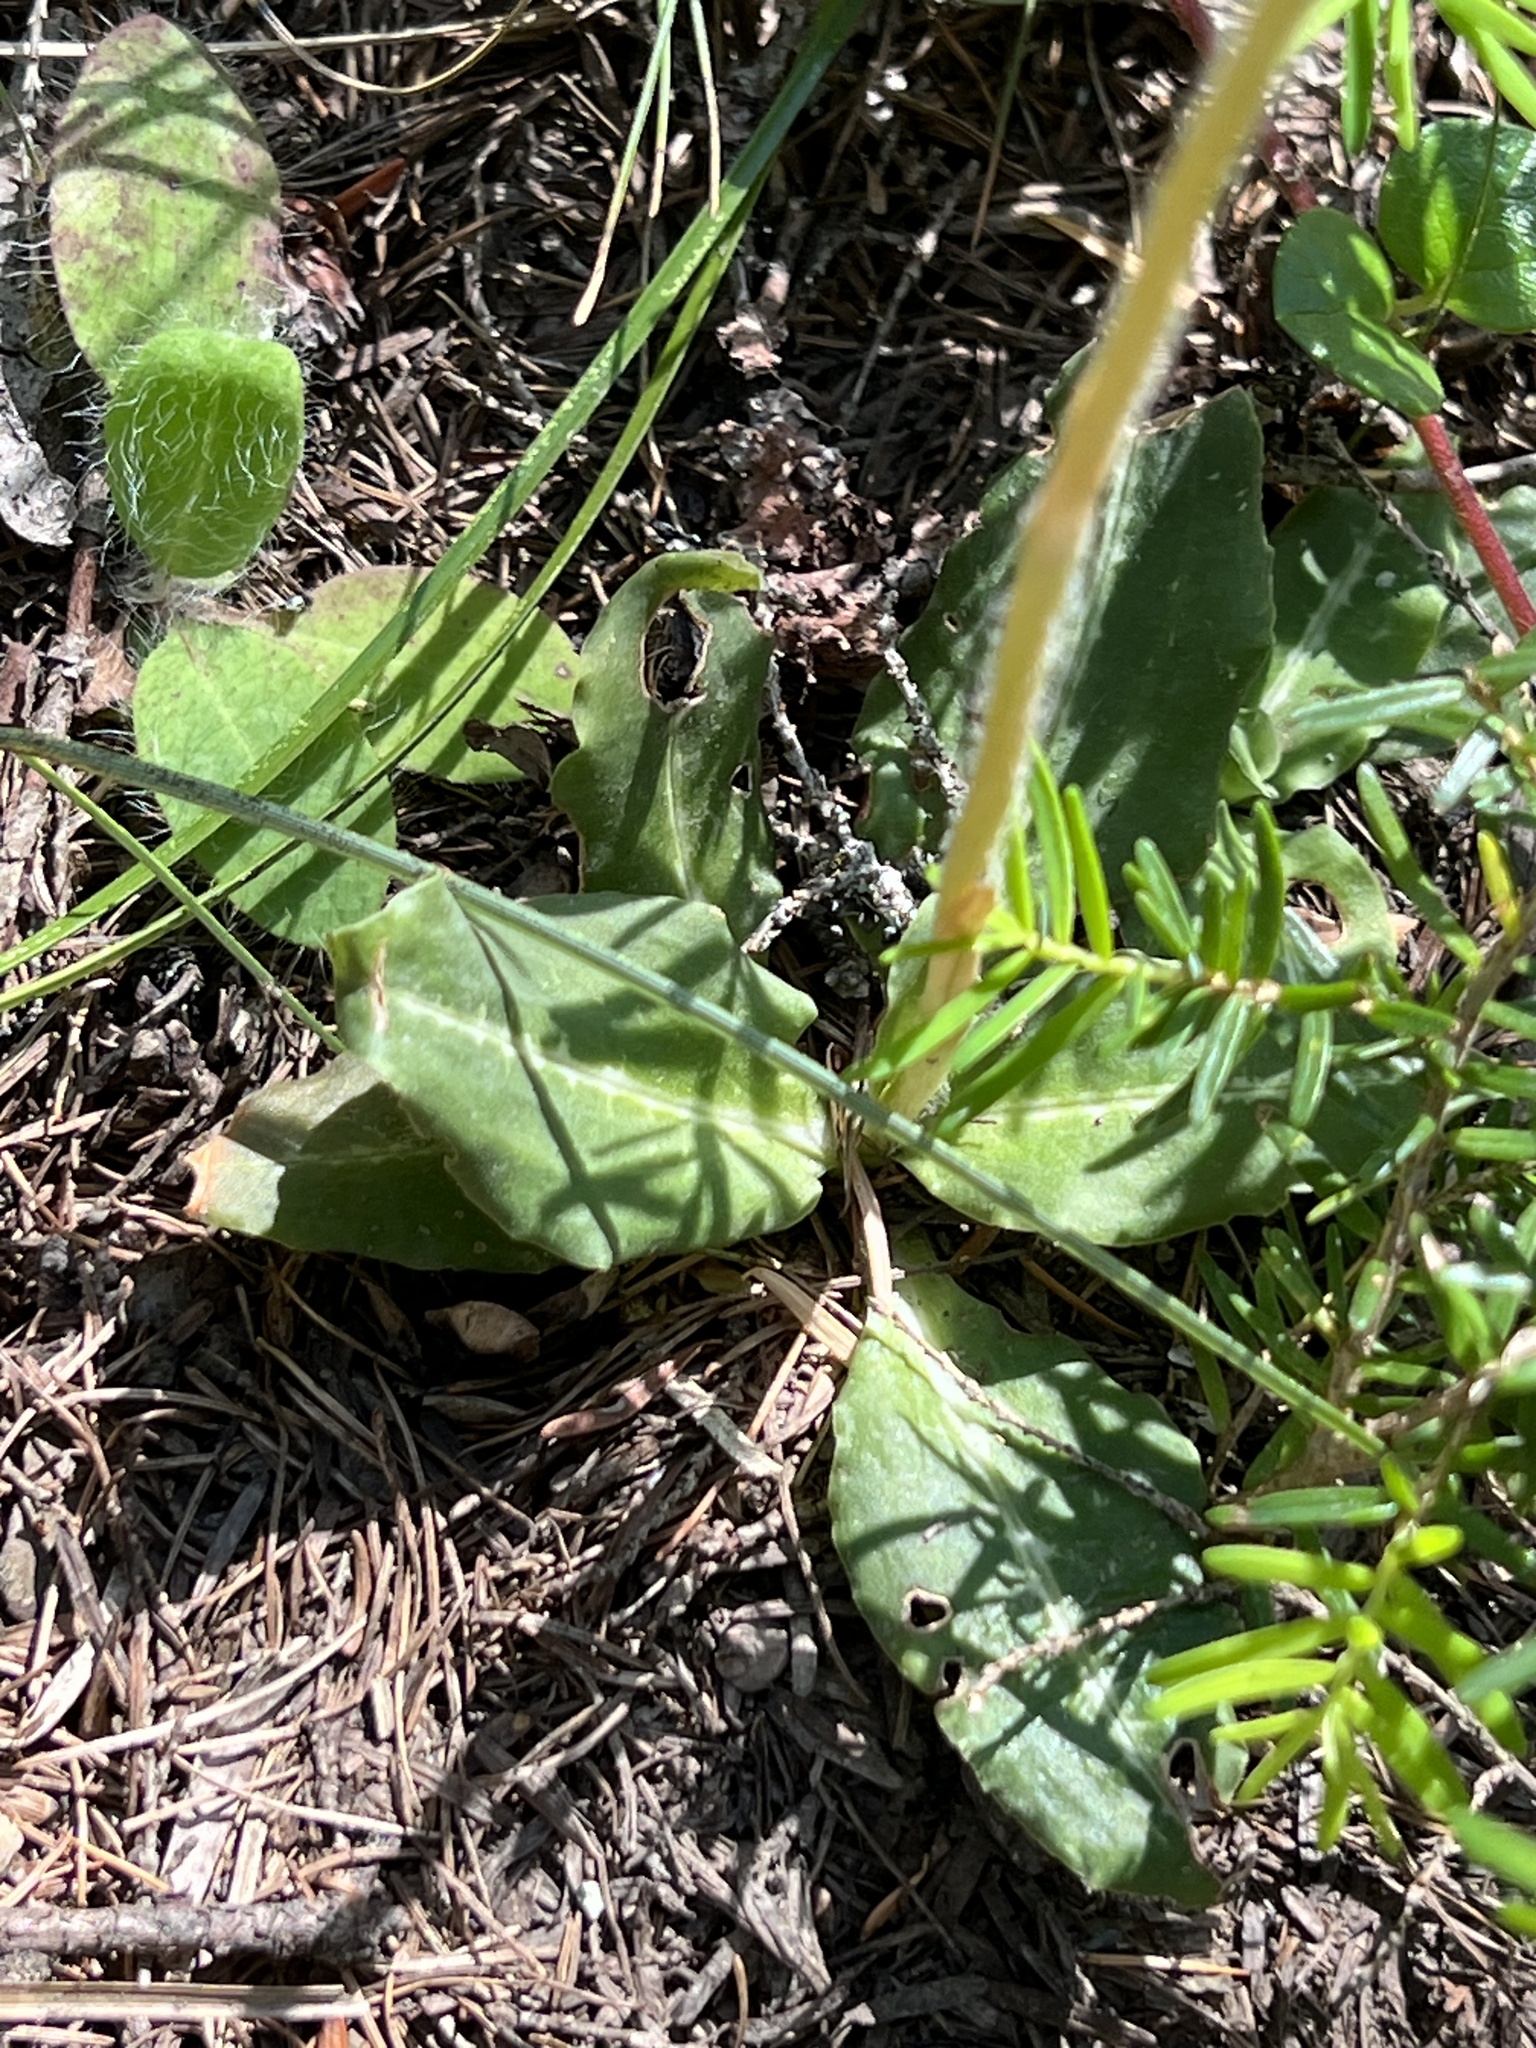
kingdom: Plantae
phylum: Tracheophyta
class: Liliopsida
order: Asparagales
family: Orchidaceae
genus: Goodyera
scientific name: Goodyera oblongifolia
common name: Giant rattlesnake-plantain
